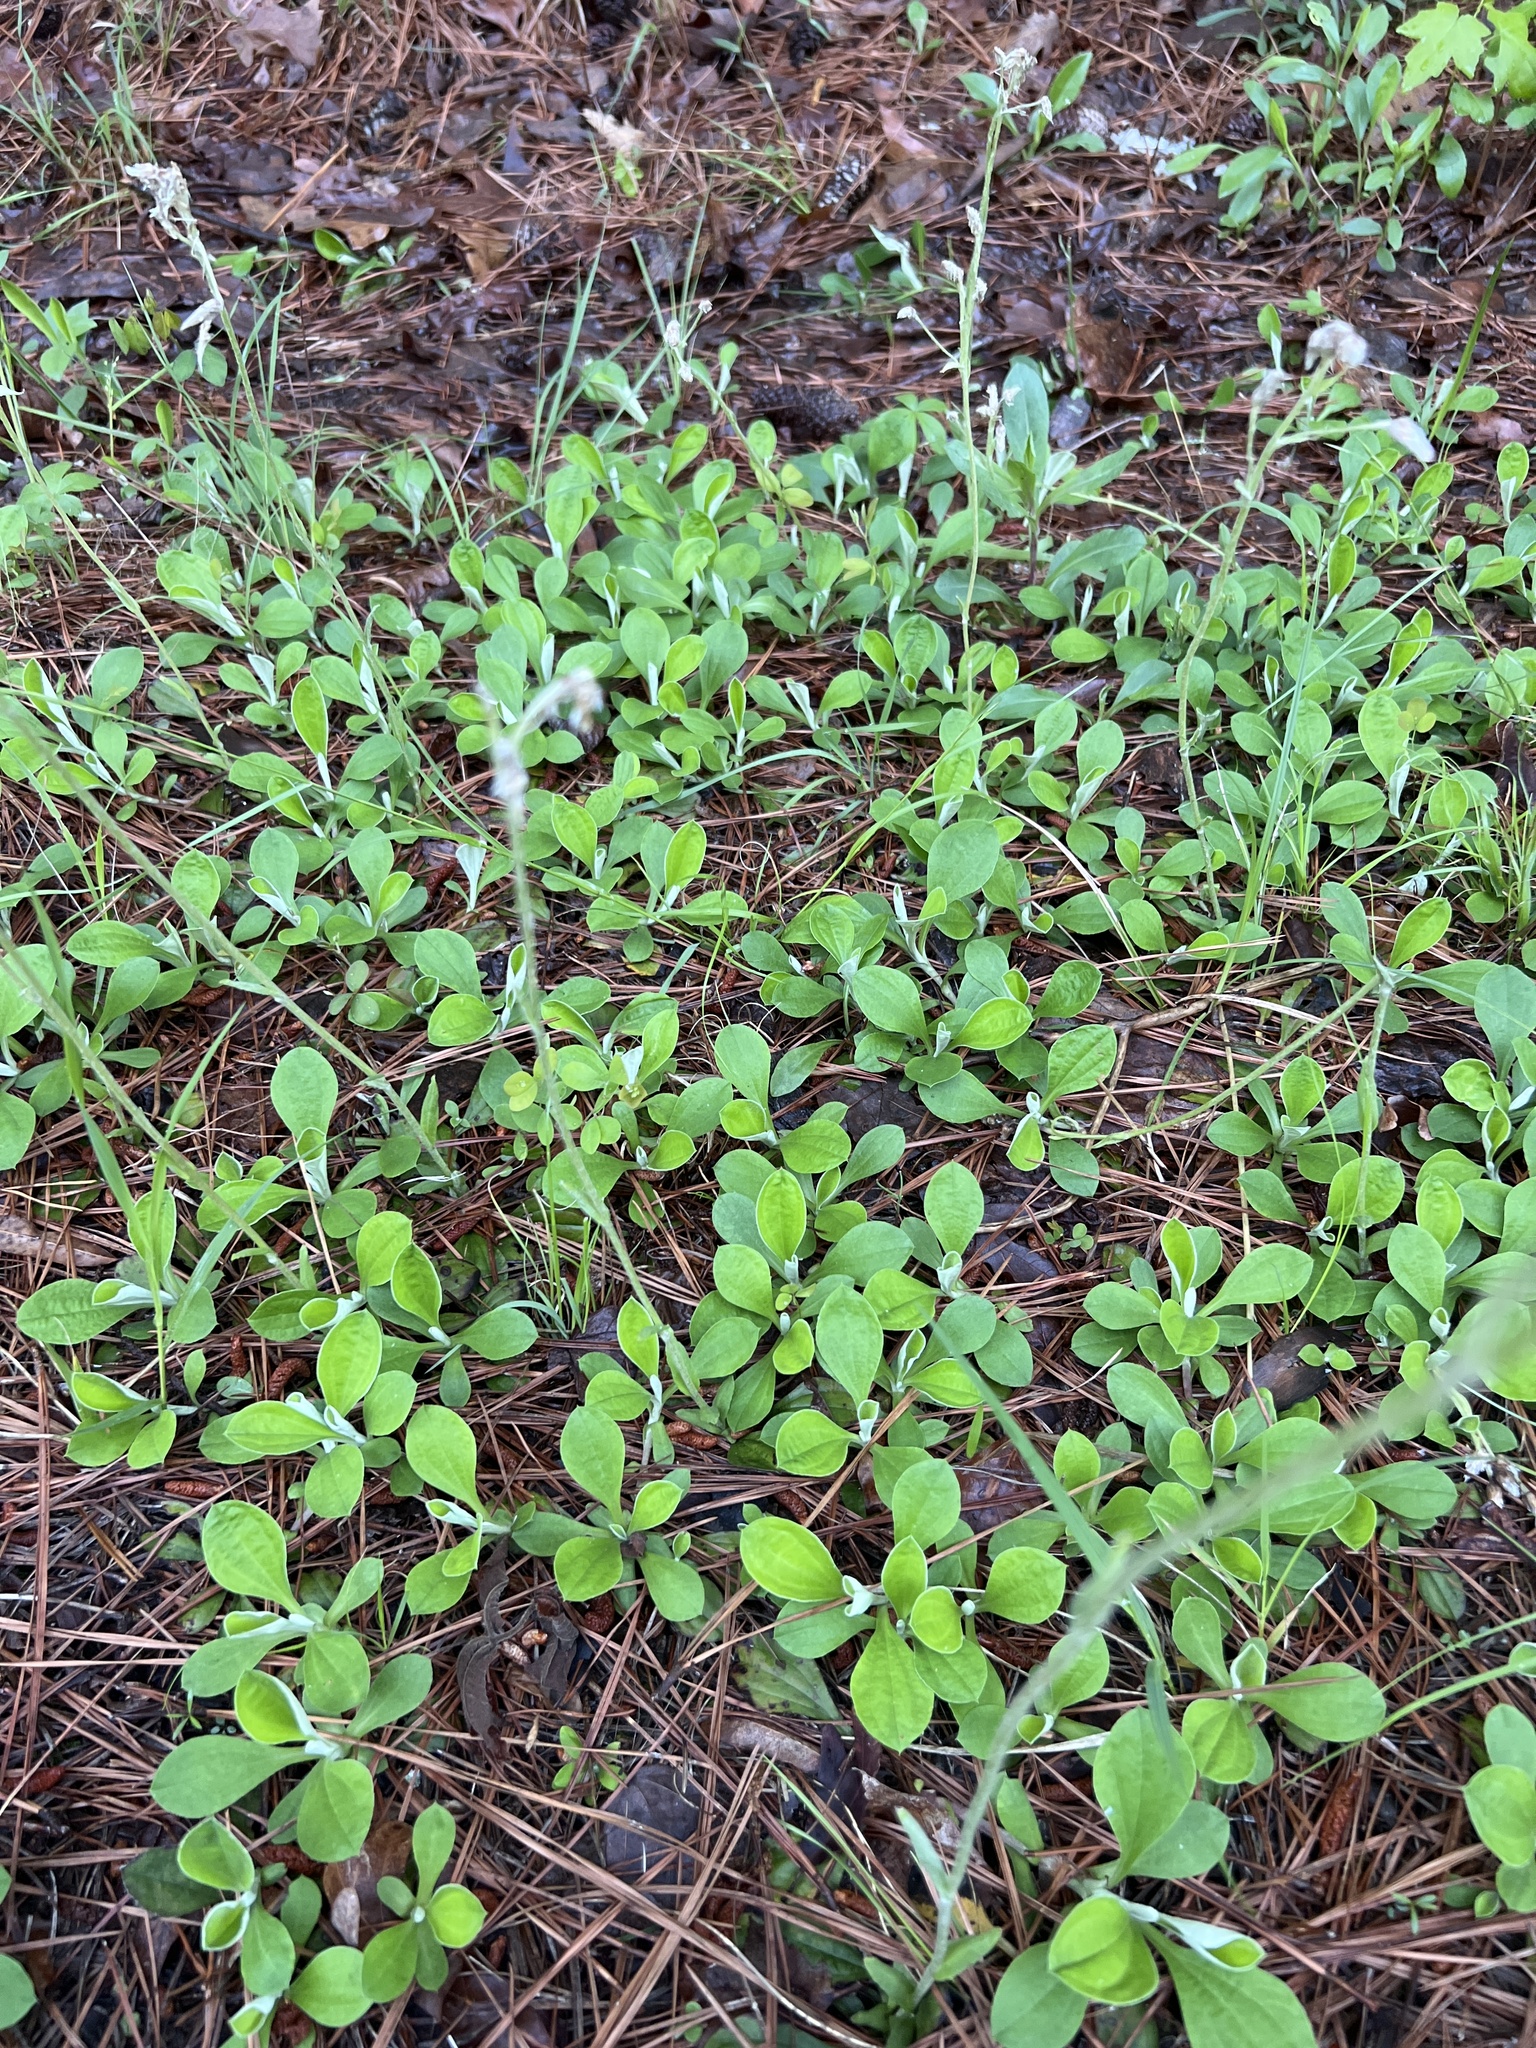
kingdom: Plantae
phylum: Tracheophyta
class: Magnoliopsida
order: Asterales
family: Asteraceae
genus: Antennaria
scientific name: Antennaria parlinii
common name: Parlin's pussytoes
